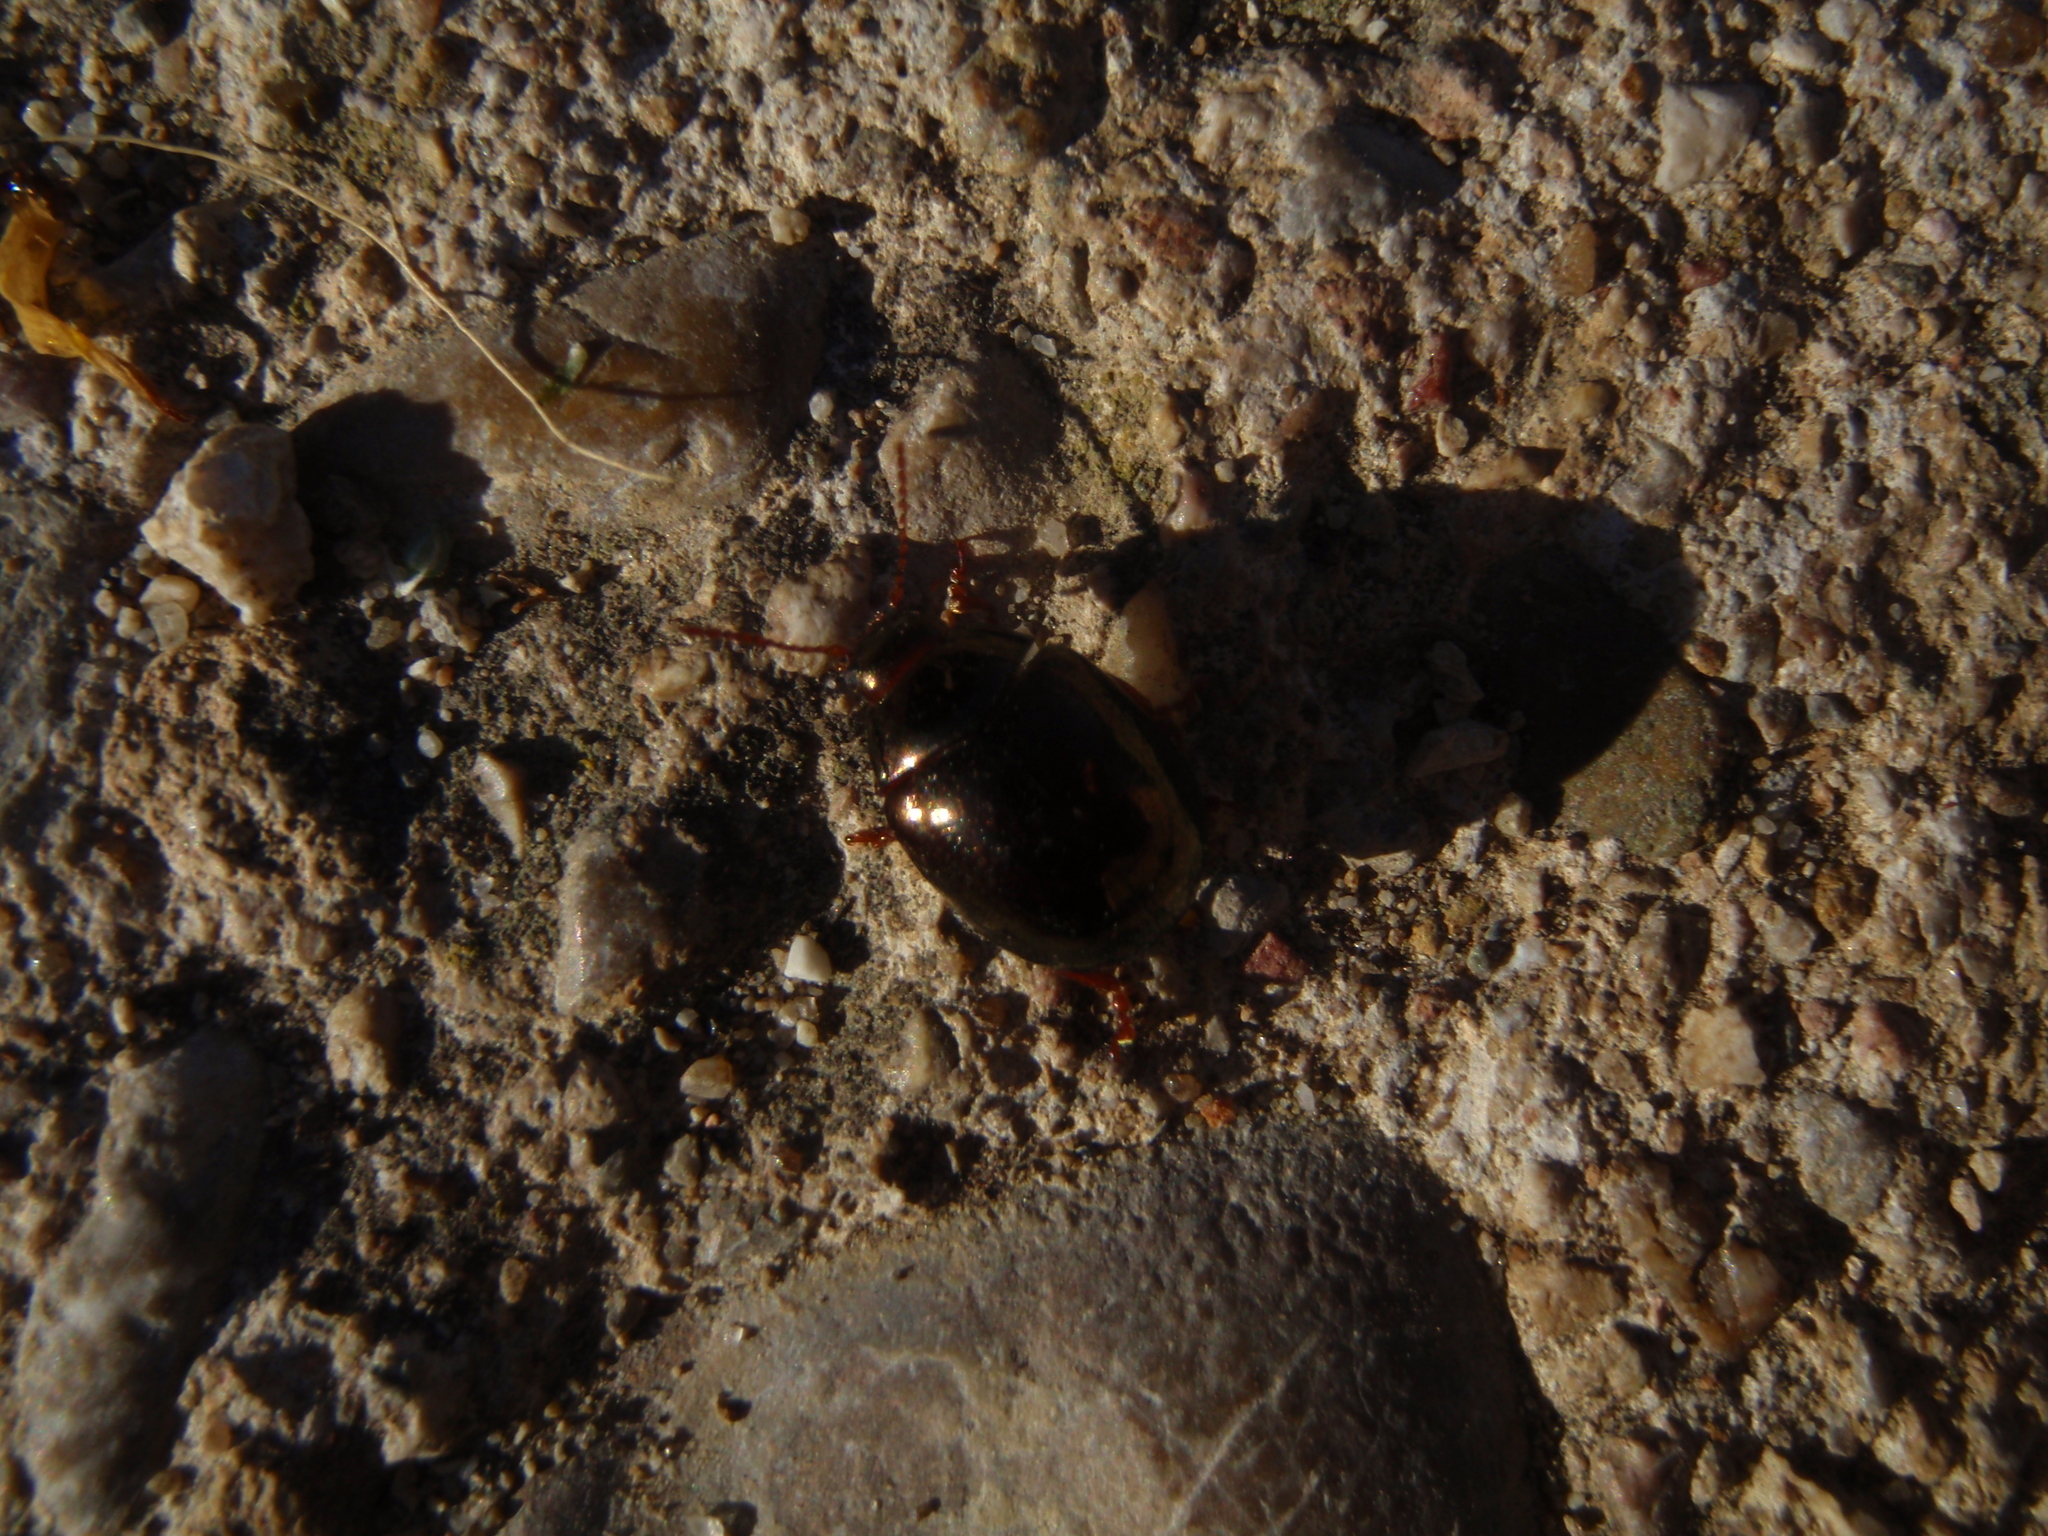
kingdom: Animalia
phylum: Arthropoda
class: Insecta
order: Coleoptera
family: Chrysomelidae
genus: Chrysolina
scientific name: Chrysolina bankii
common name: Leaf beetle
